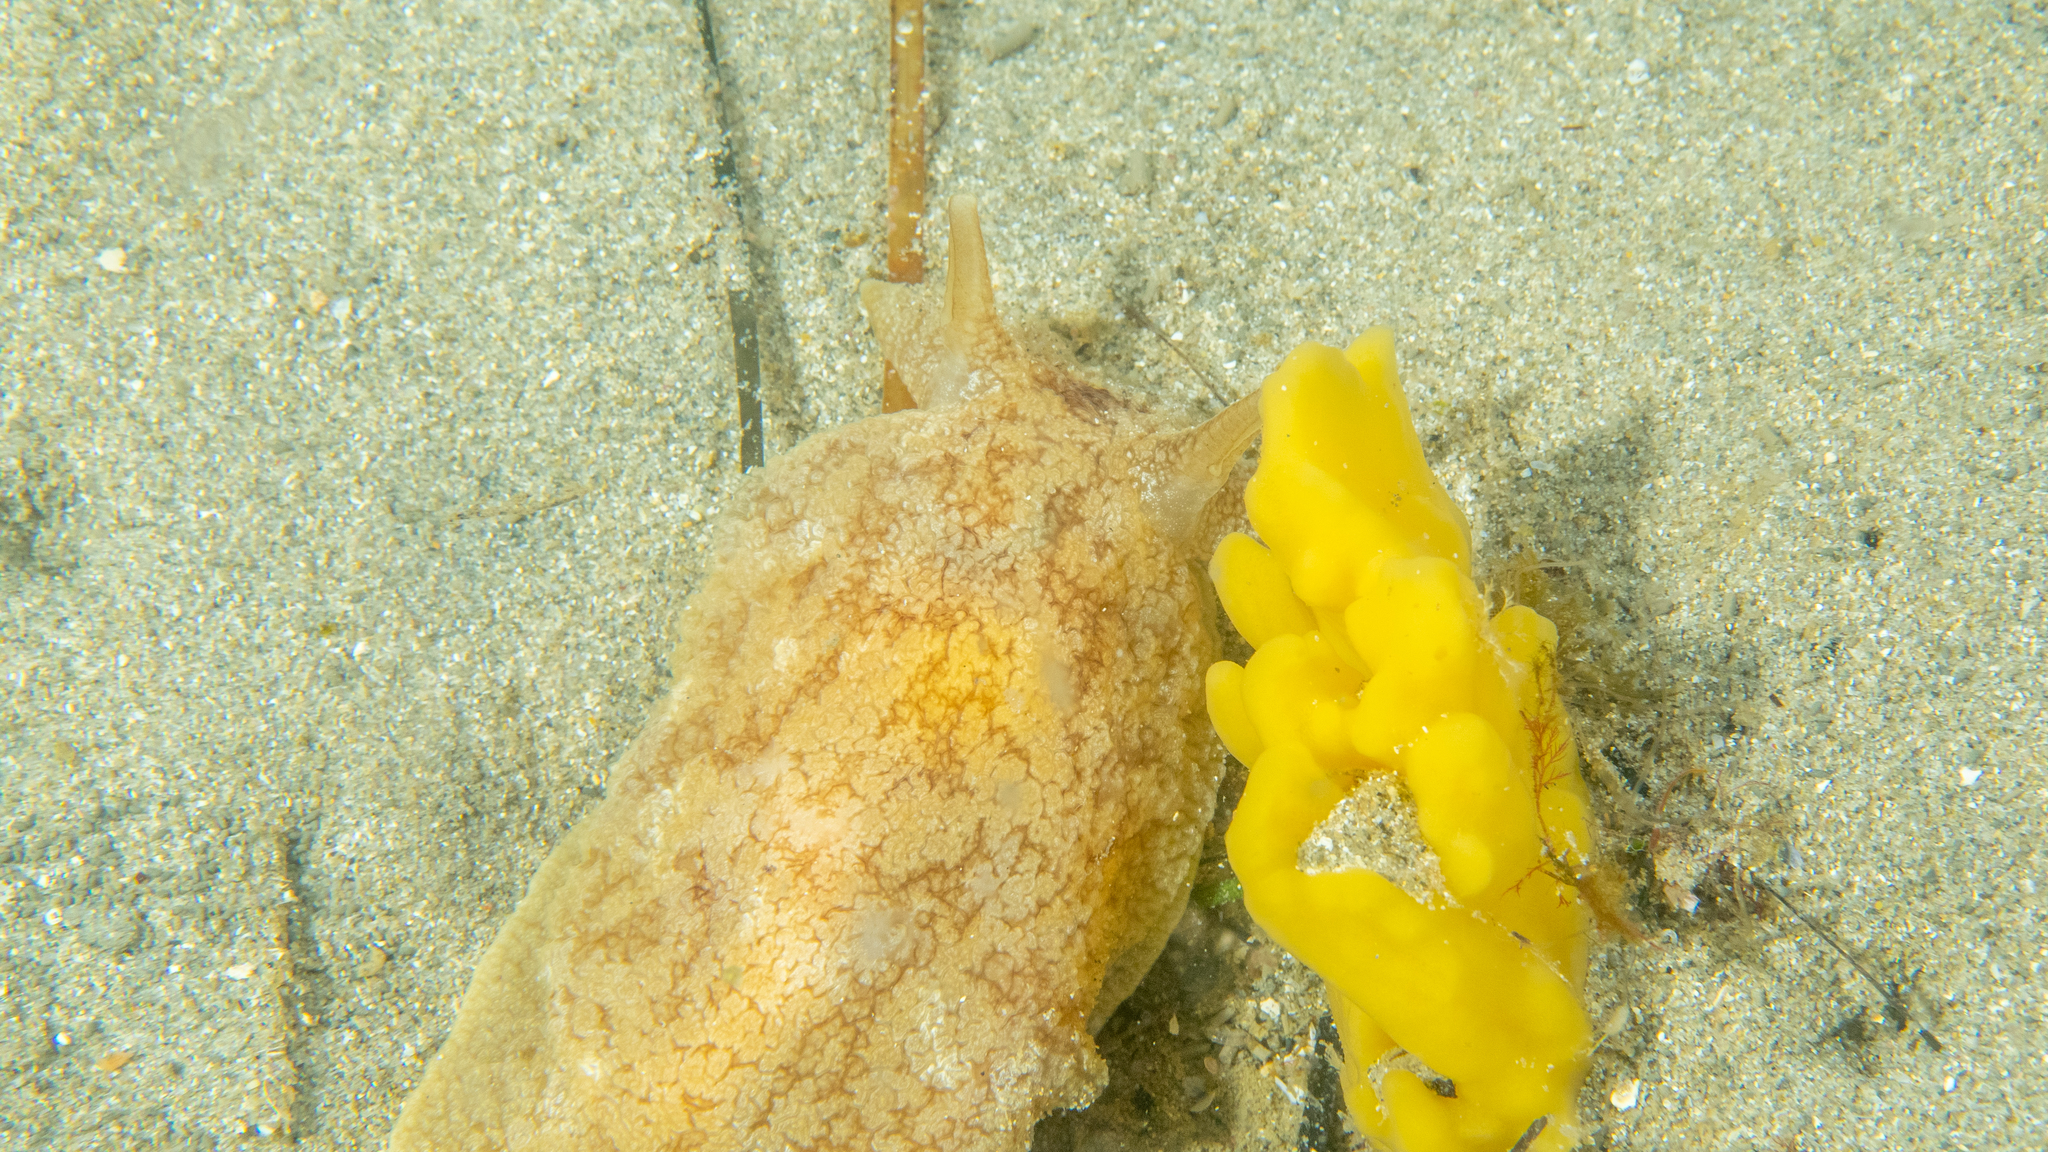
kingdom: Animalia
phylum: Mollusca
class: Gastropoda
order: Pleurobranchida
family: Pleurobranchaeidae
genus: Pleurobranchaea
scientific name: Pleurobranchaea maculata
